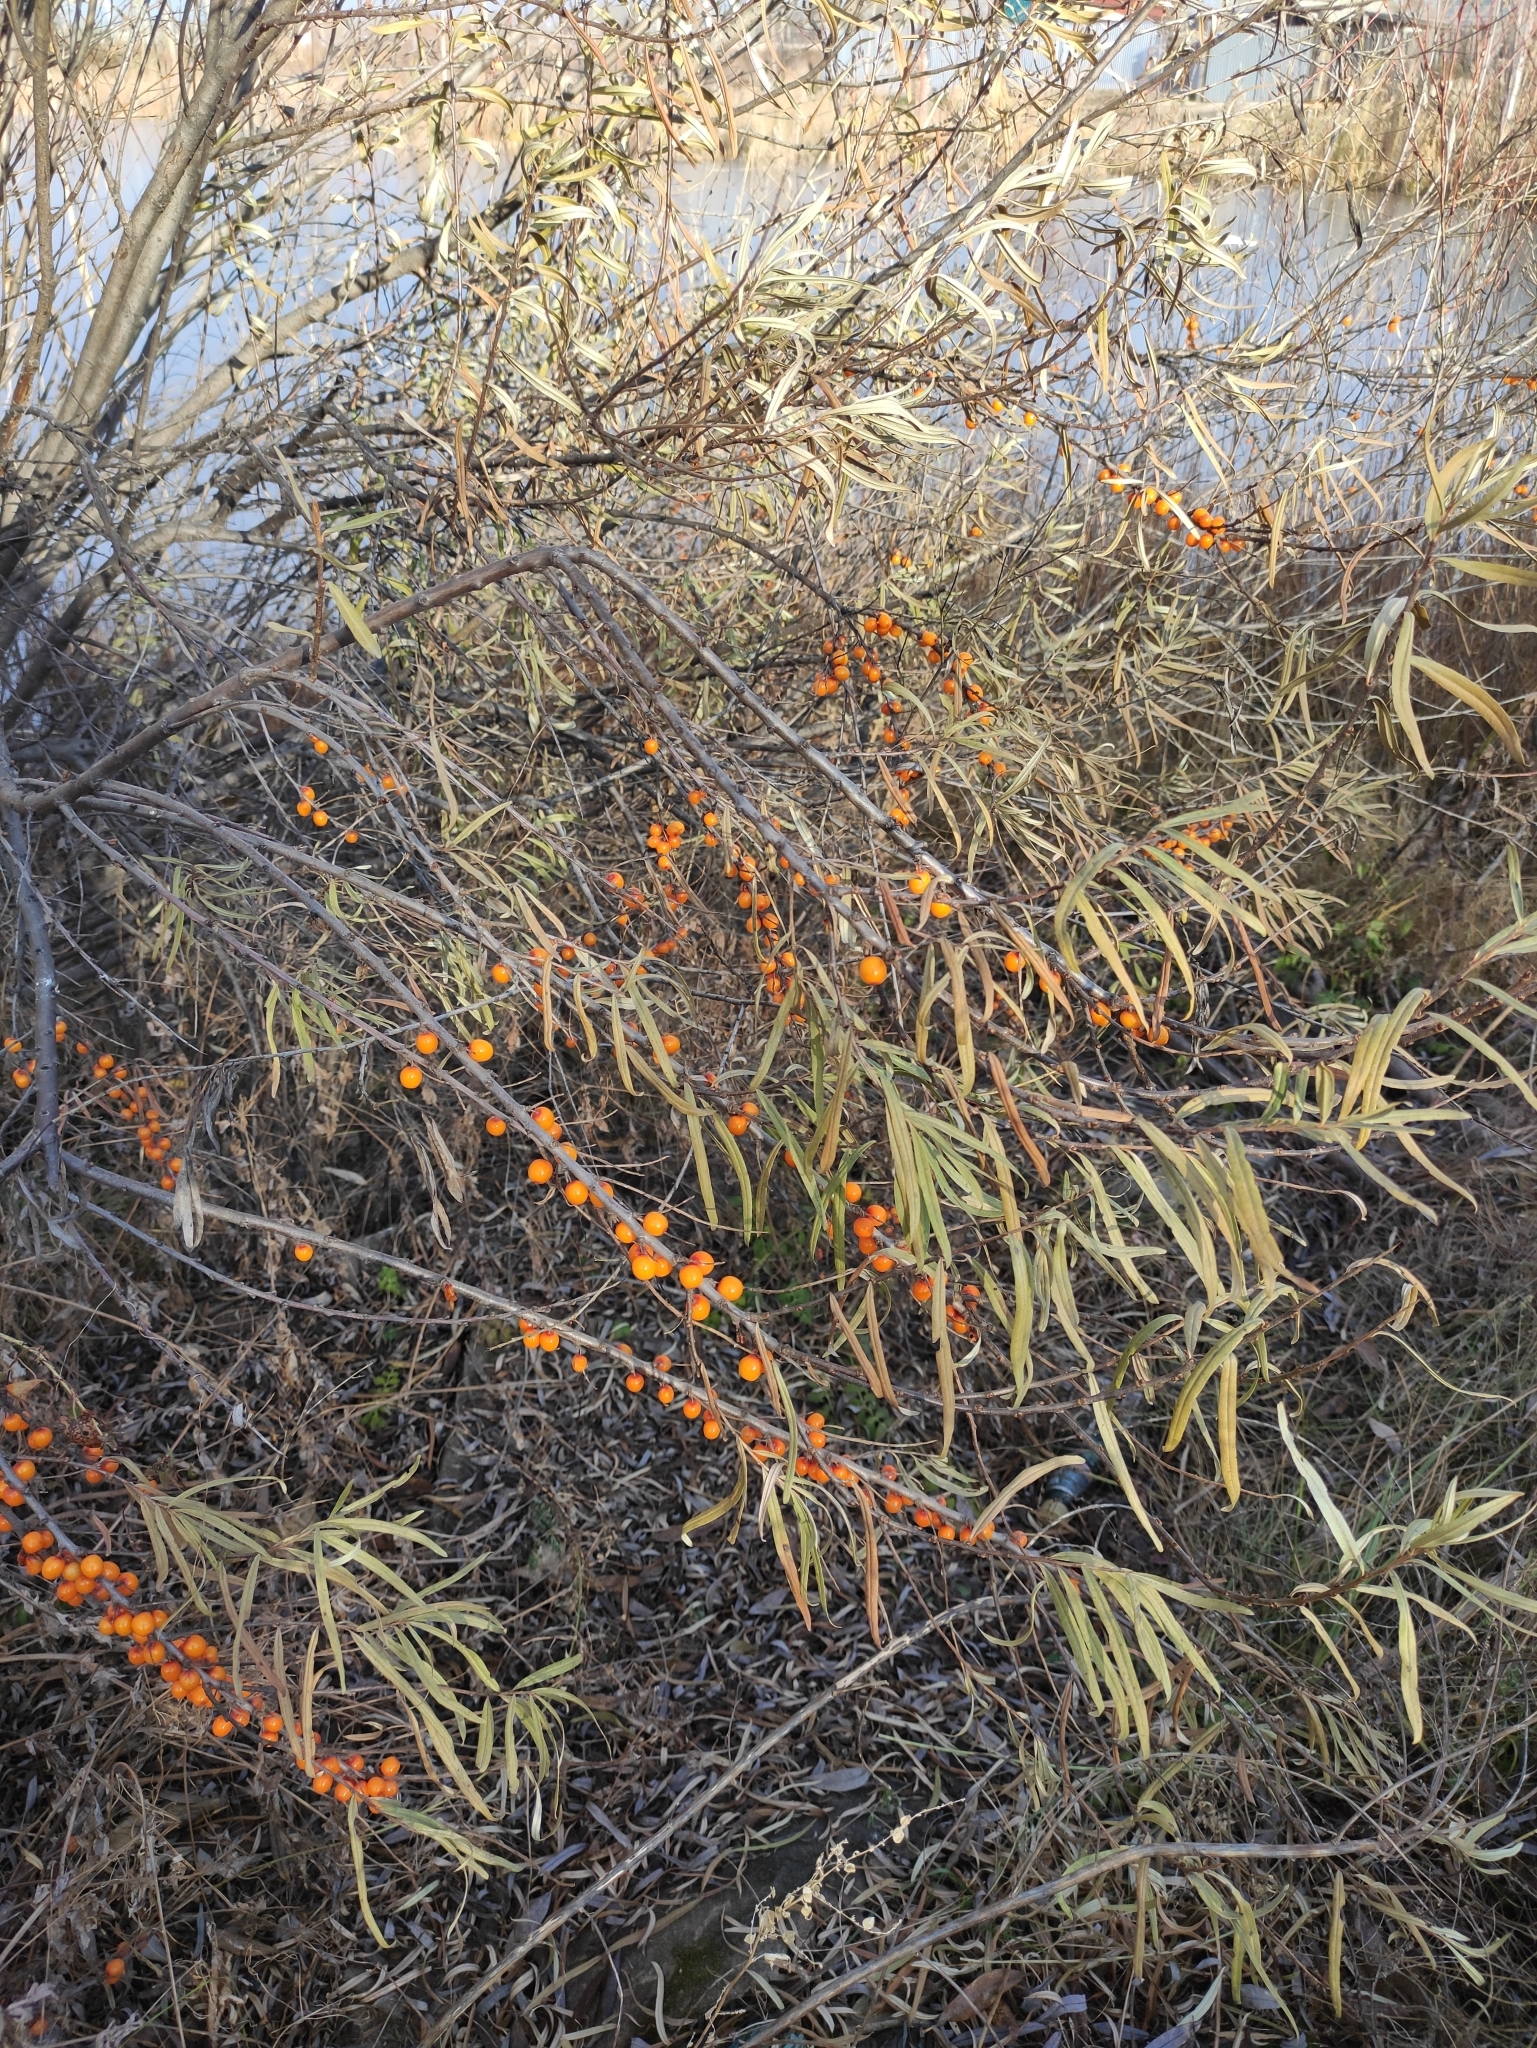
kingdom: Plantae
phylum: Tracheophyta
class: Magnoliopsida
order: Rosales
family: Elaeagnaceae
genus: Hippophae
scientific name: Hippophae rhamnoides
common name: Sea-buckthorn
